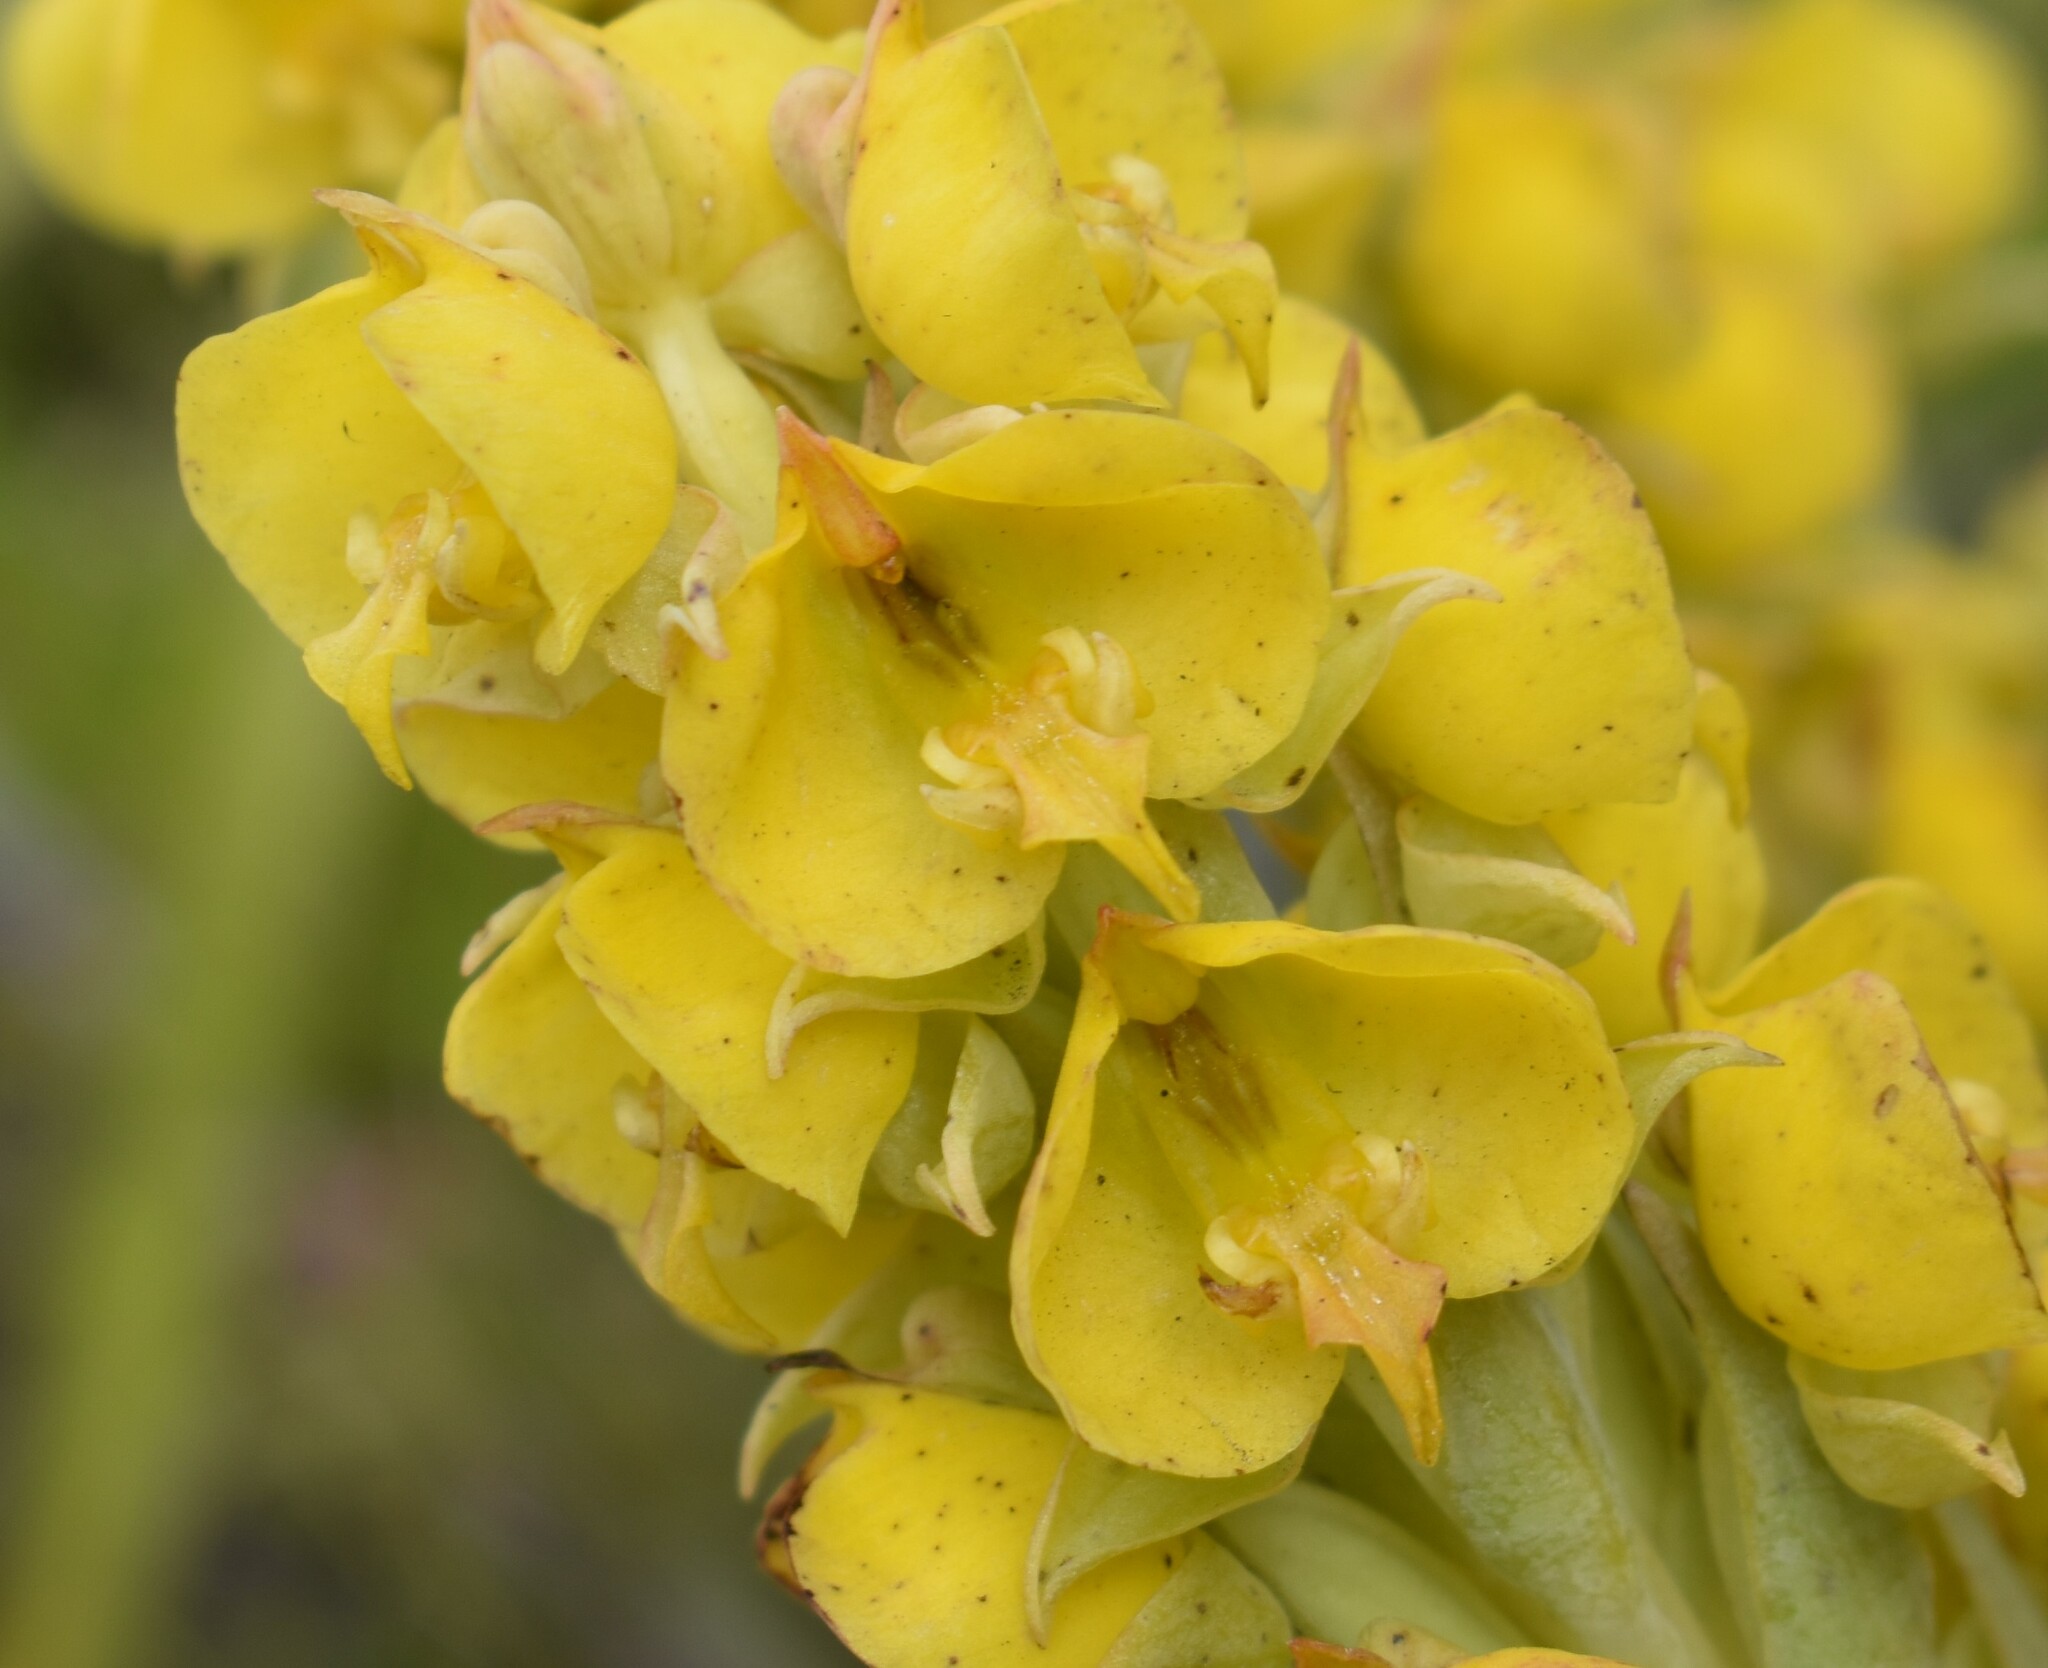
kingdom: Plantae
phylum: Tracheophyta
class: Liliopsida
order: Asparagales
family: Orchidaceae
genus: Pterygodium
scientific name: Pterygodium acutifolium
